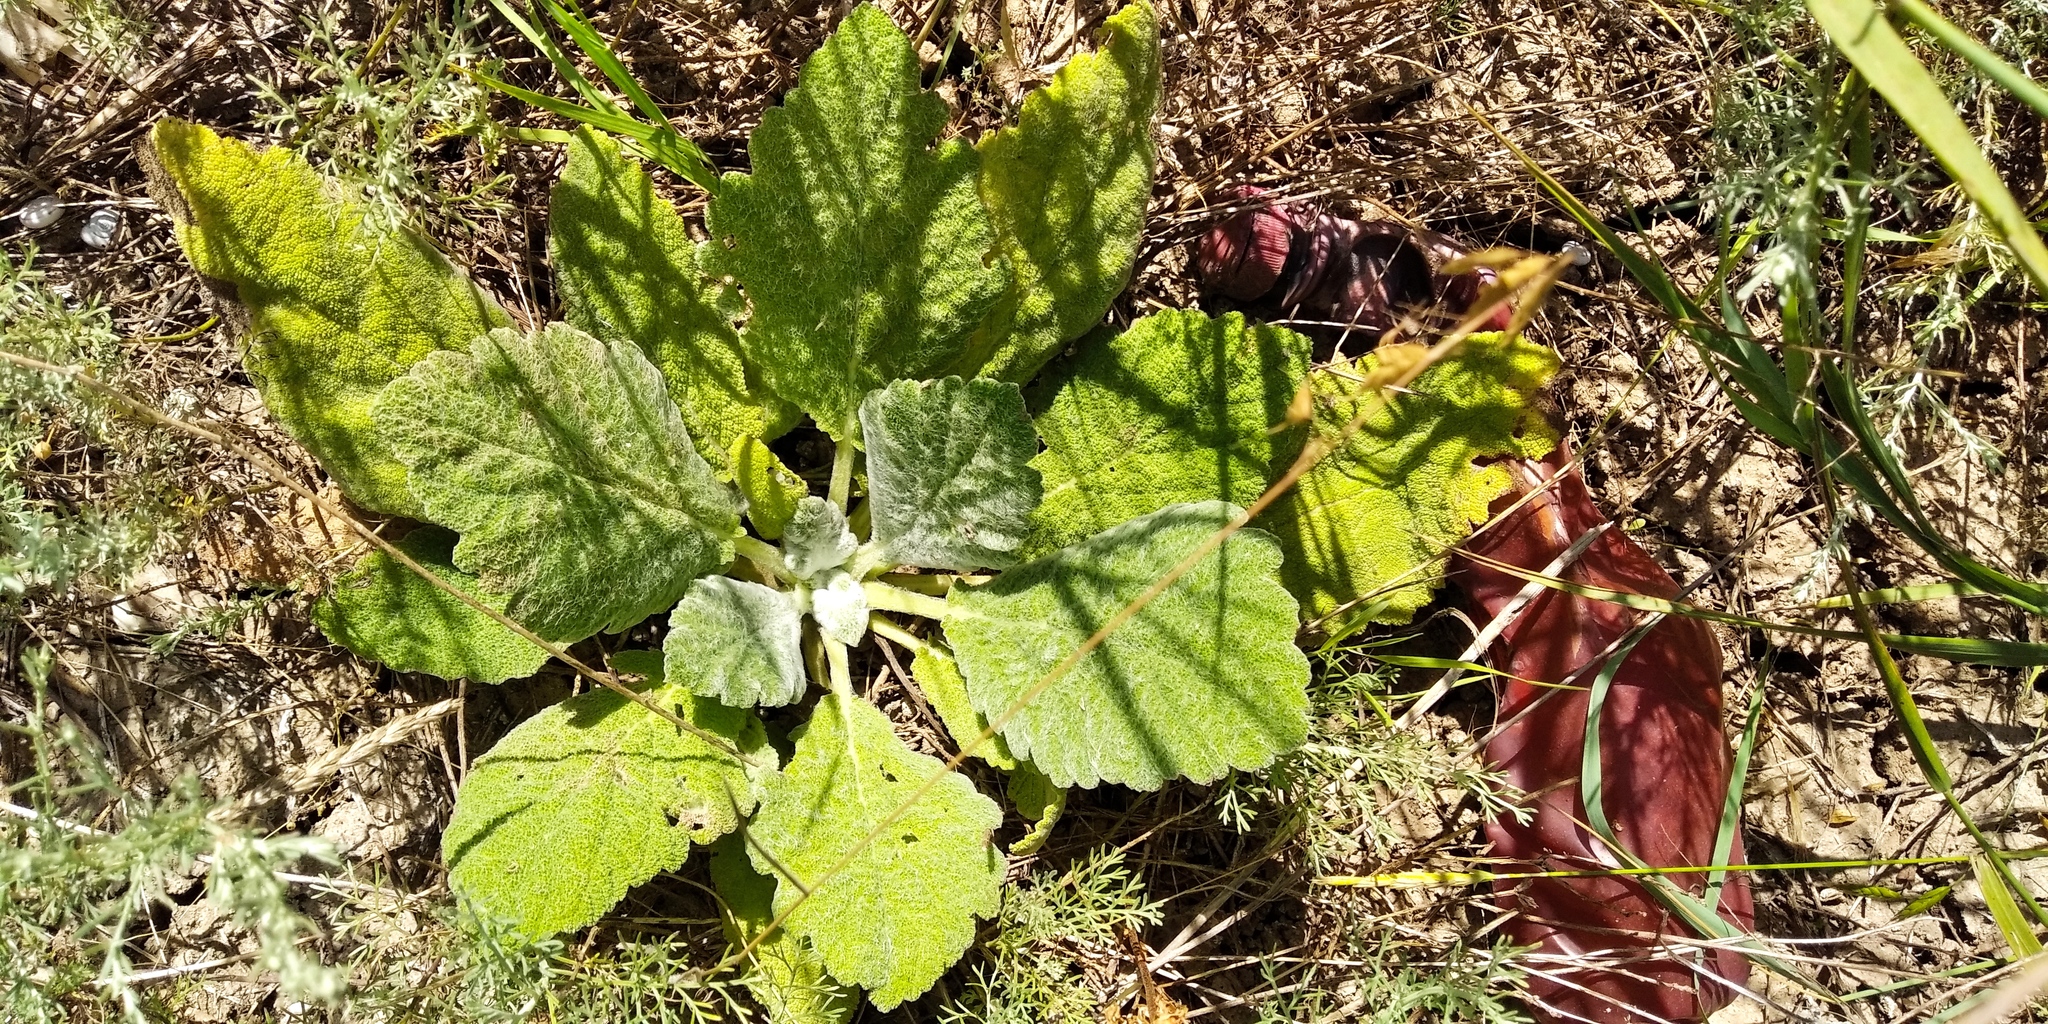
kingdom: Plantae
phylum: Tracheophyta
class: Magnoliopsida
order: Lamiales
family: Lamiaceae
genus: Salvia
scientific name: Salvia aethiopis
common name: Mediterranean sage
